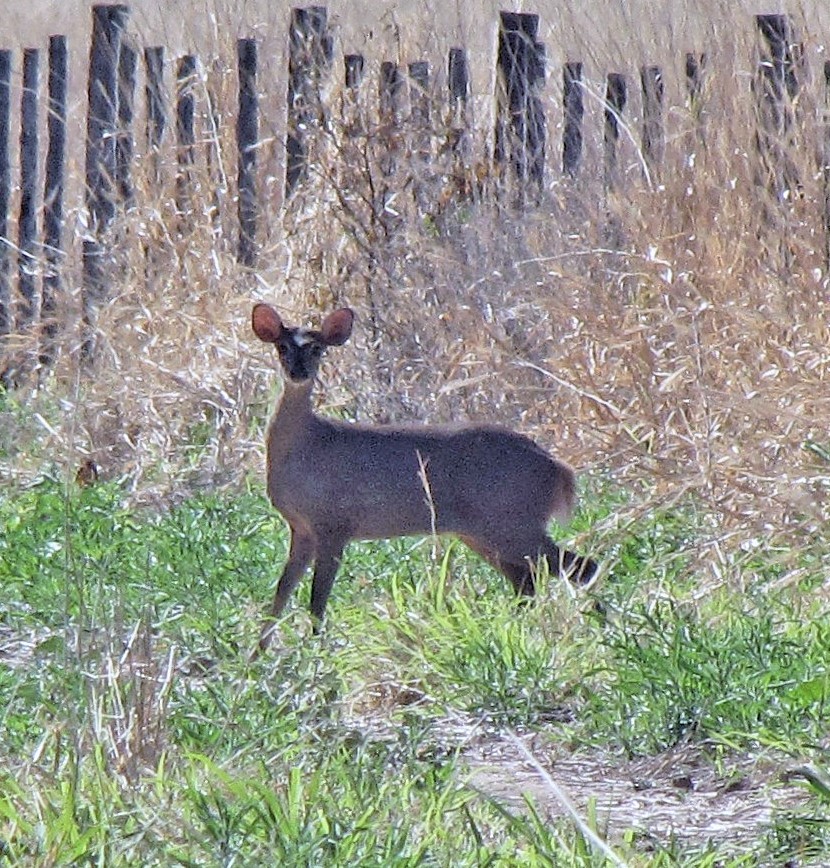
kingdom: Animalia
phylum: Chordata
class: Mammalia
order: Artiodactyla
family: Cervidae
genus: Mazama
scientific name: Mazama gouazoubira
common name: Gray brocket
